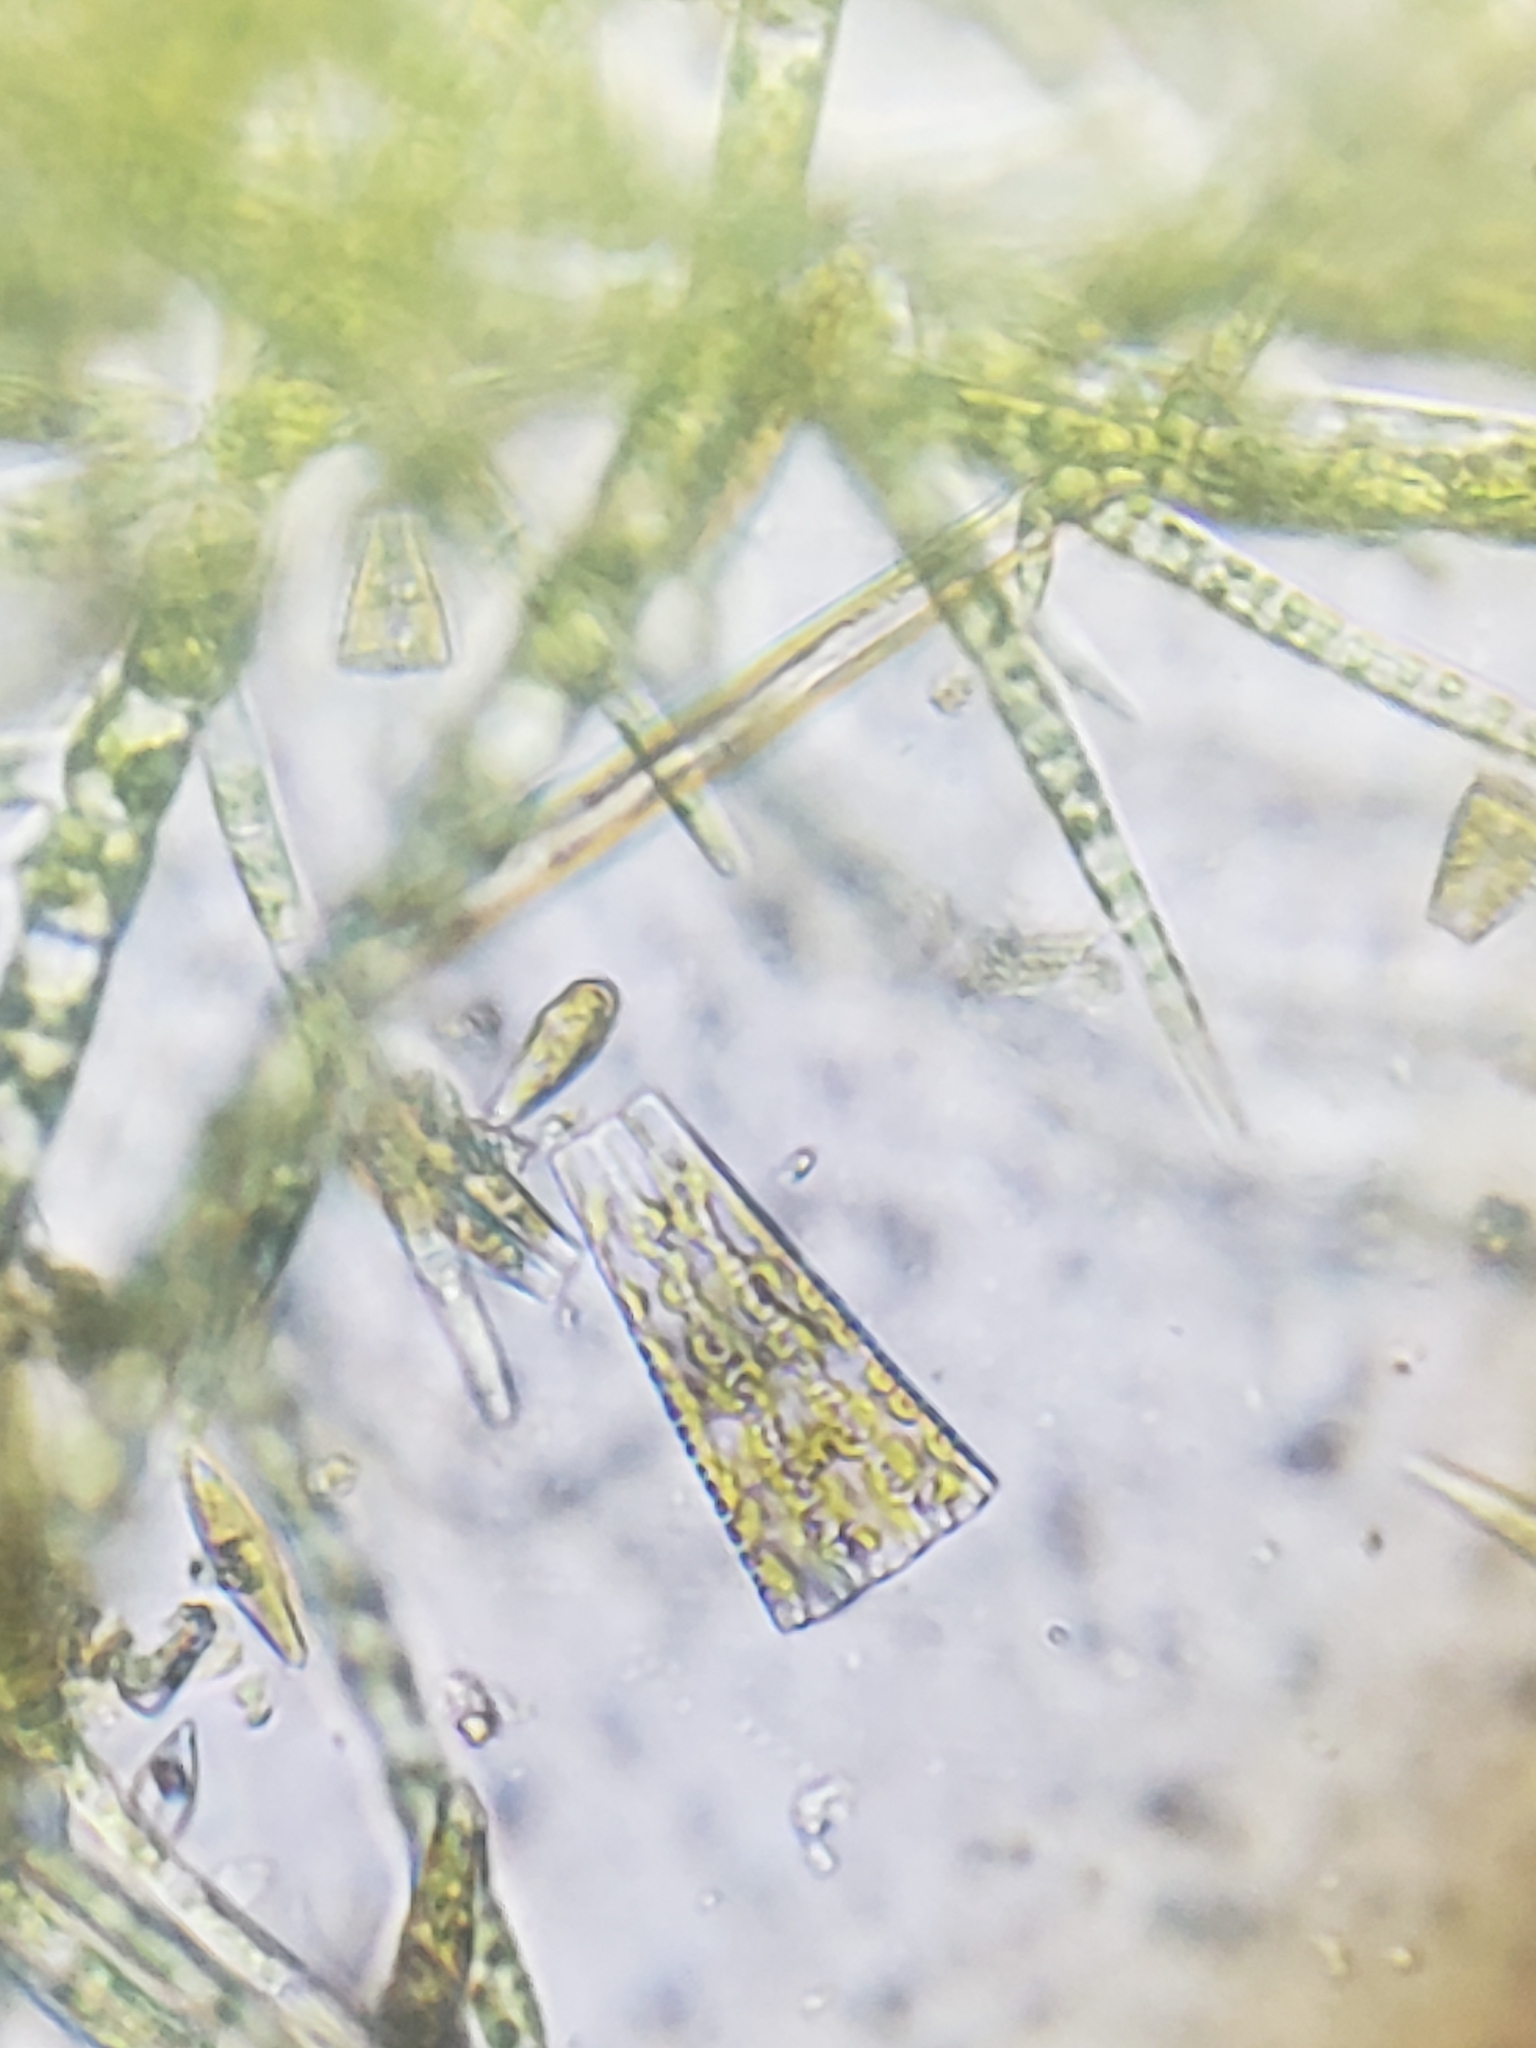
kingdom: Chromista
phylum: Ochrophyta
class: Bacillariophyceae
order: Fragilariales
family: Fragilariaceae
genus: Meridion
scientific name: Meridion circulare
